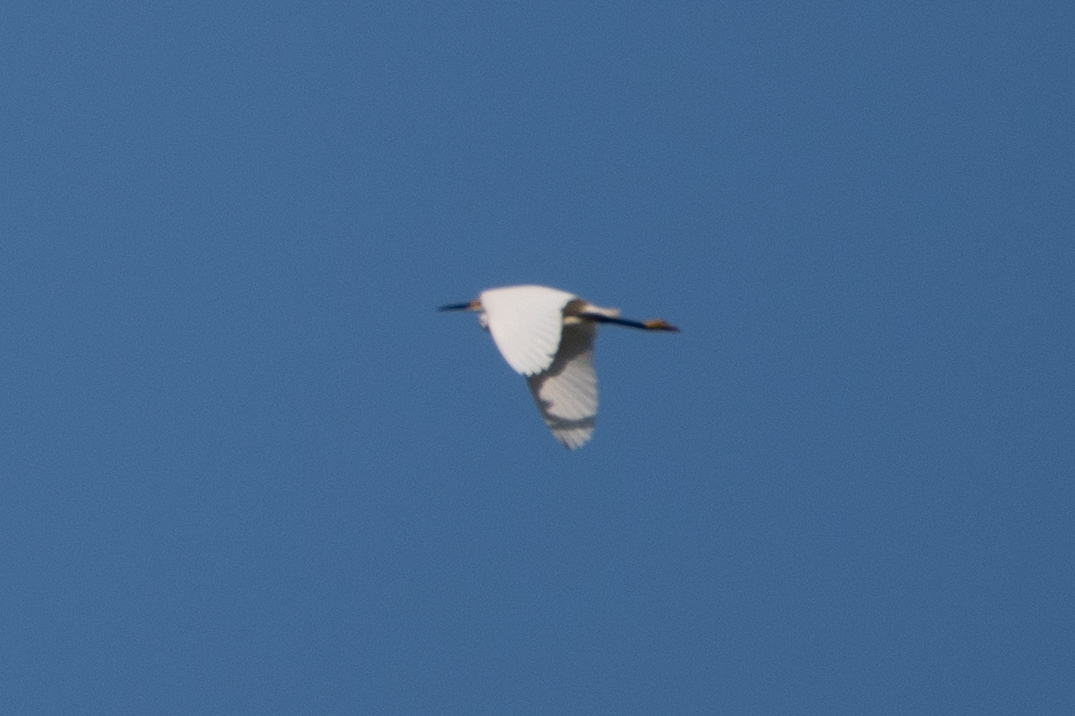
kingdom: Animalia
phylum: Chordata
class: Aves
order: Pelecaniformes
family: Ardeidae
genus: Egretta
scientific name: Egretta thula
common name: Snowy egret
